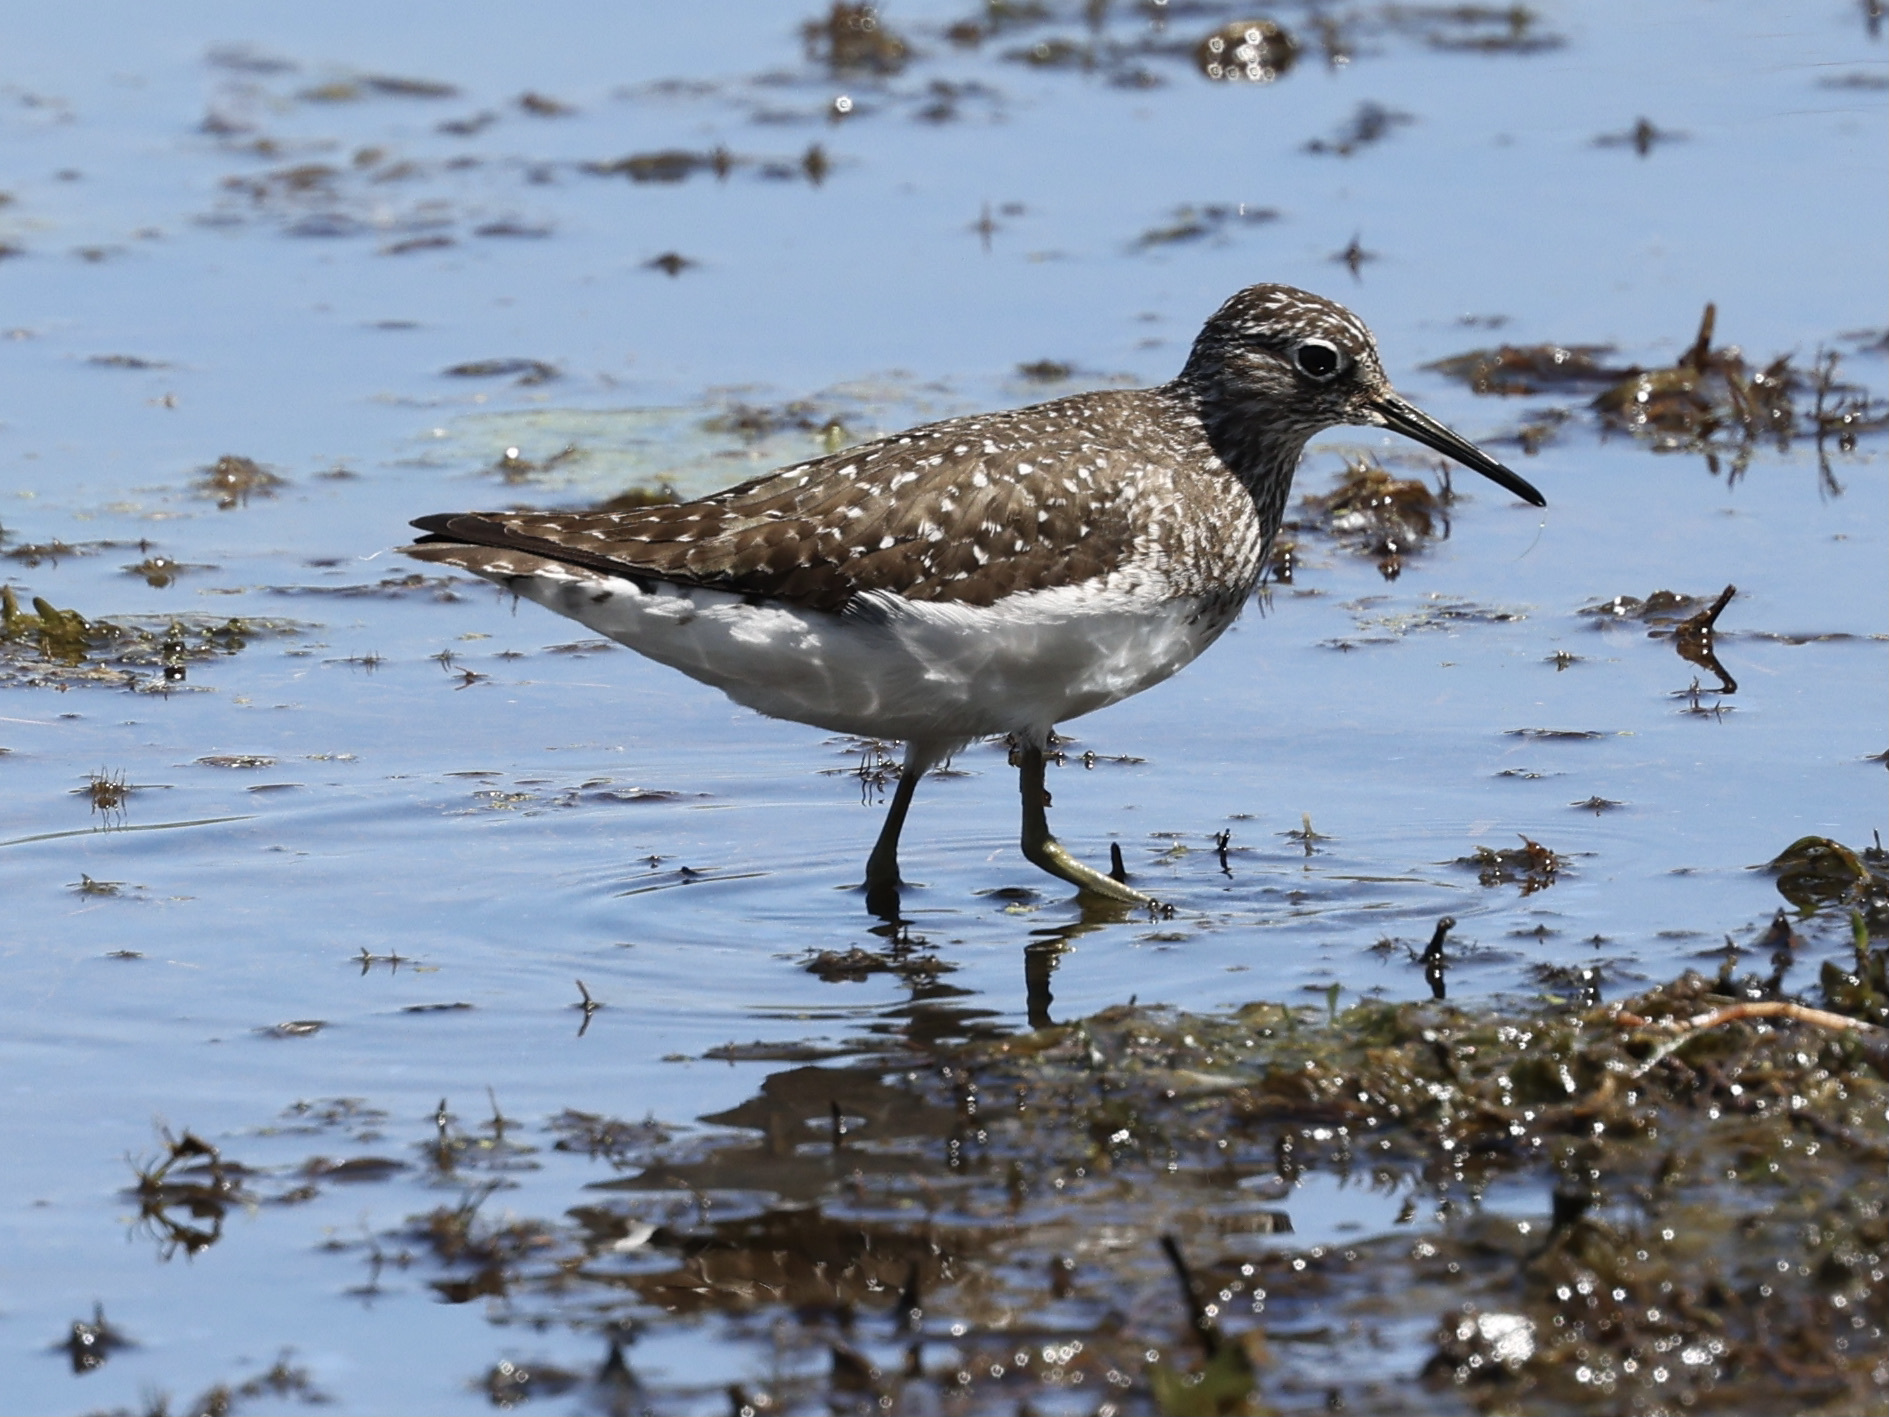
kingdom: Animalia
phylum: Chordata
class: Aves
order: Charadriiformes
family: Scolopacidae
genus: Tringa
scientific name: Tringa solitaria
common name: Solitary sandpiper
